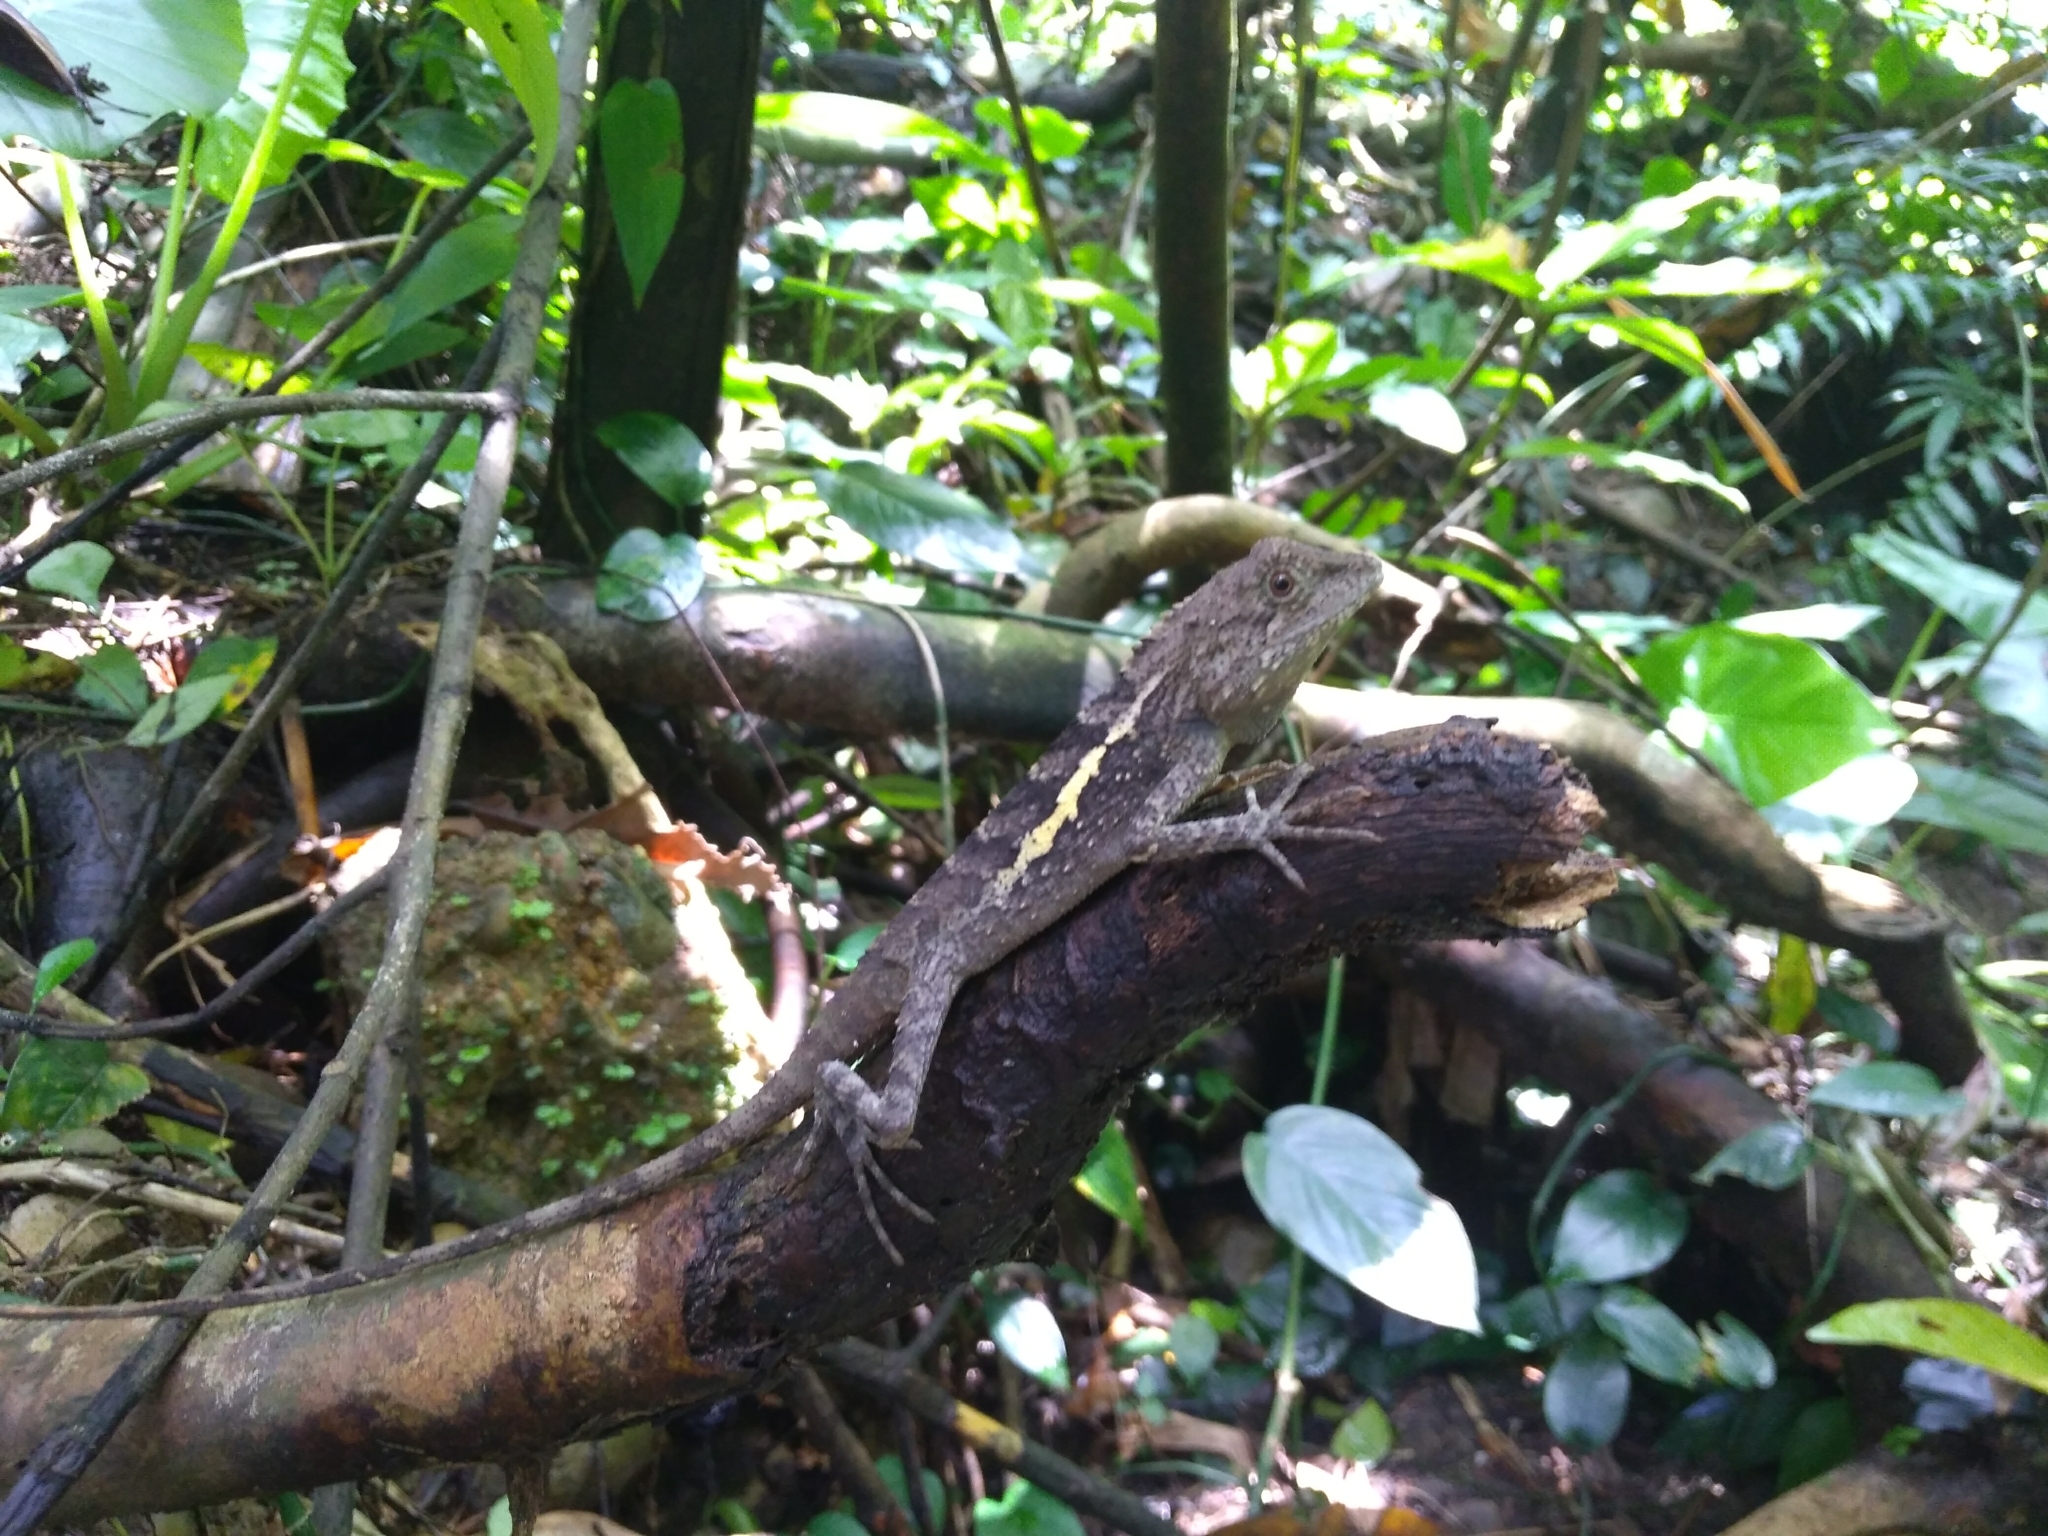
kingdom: Animalia
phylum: Chordata
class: Squamata
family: Agamidae
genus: Diploderma
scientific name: Diploderma swinhonis
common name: Taiwan japalure
